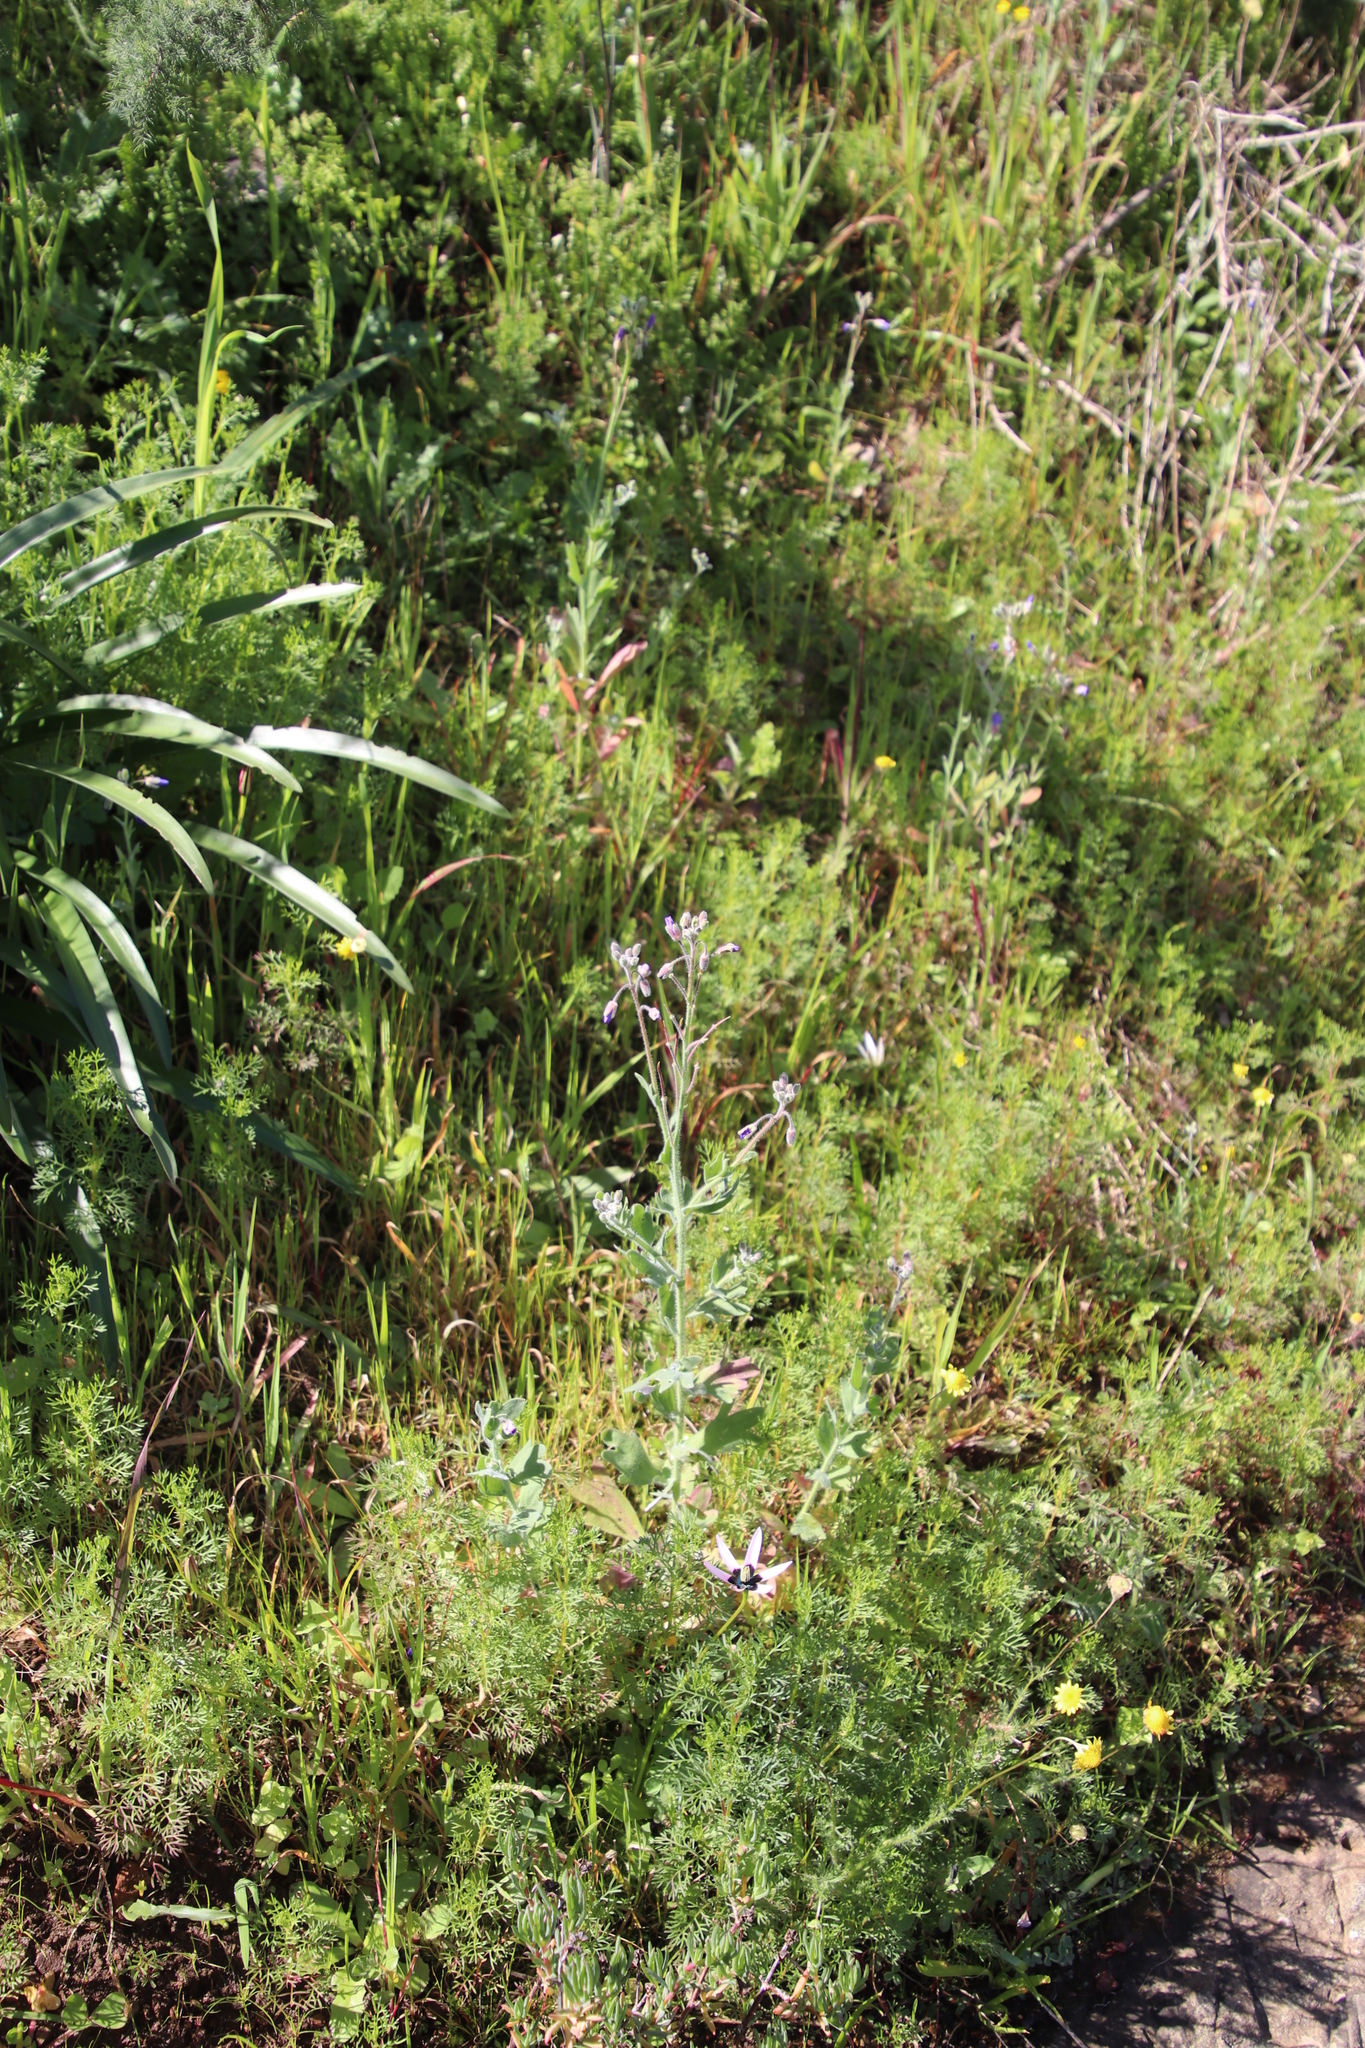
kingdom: Plantae
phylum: Tracheophyta
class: Magnoliopsida
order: Brassicales
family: Brassicaceae
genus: Heliophila
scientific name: Heliophila africana
